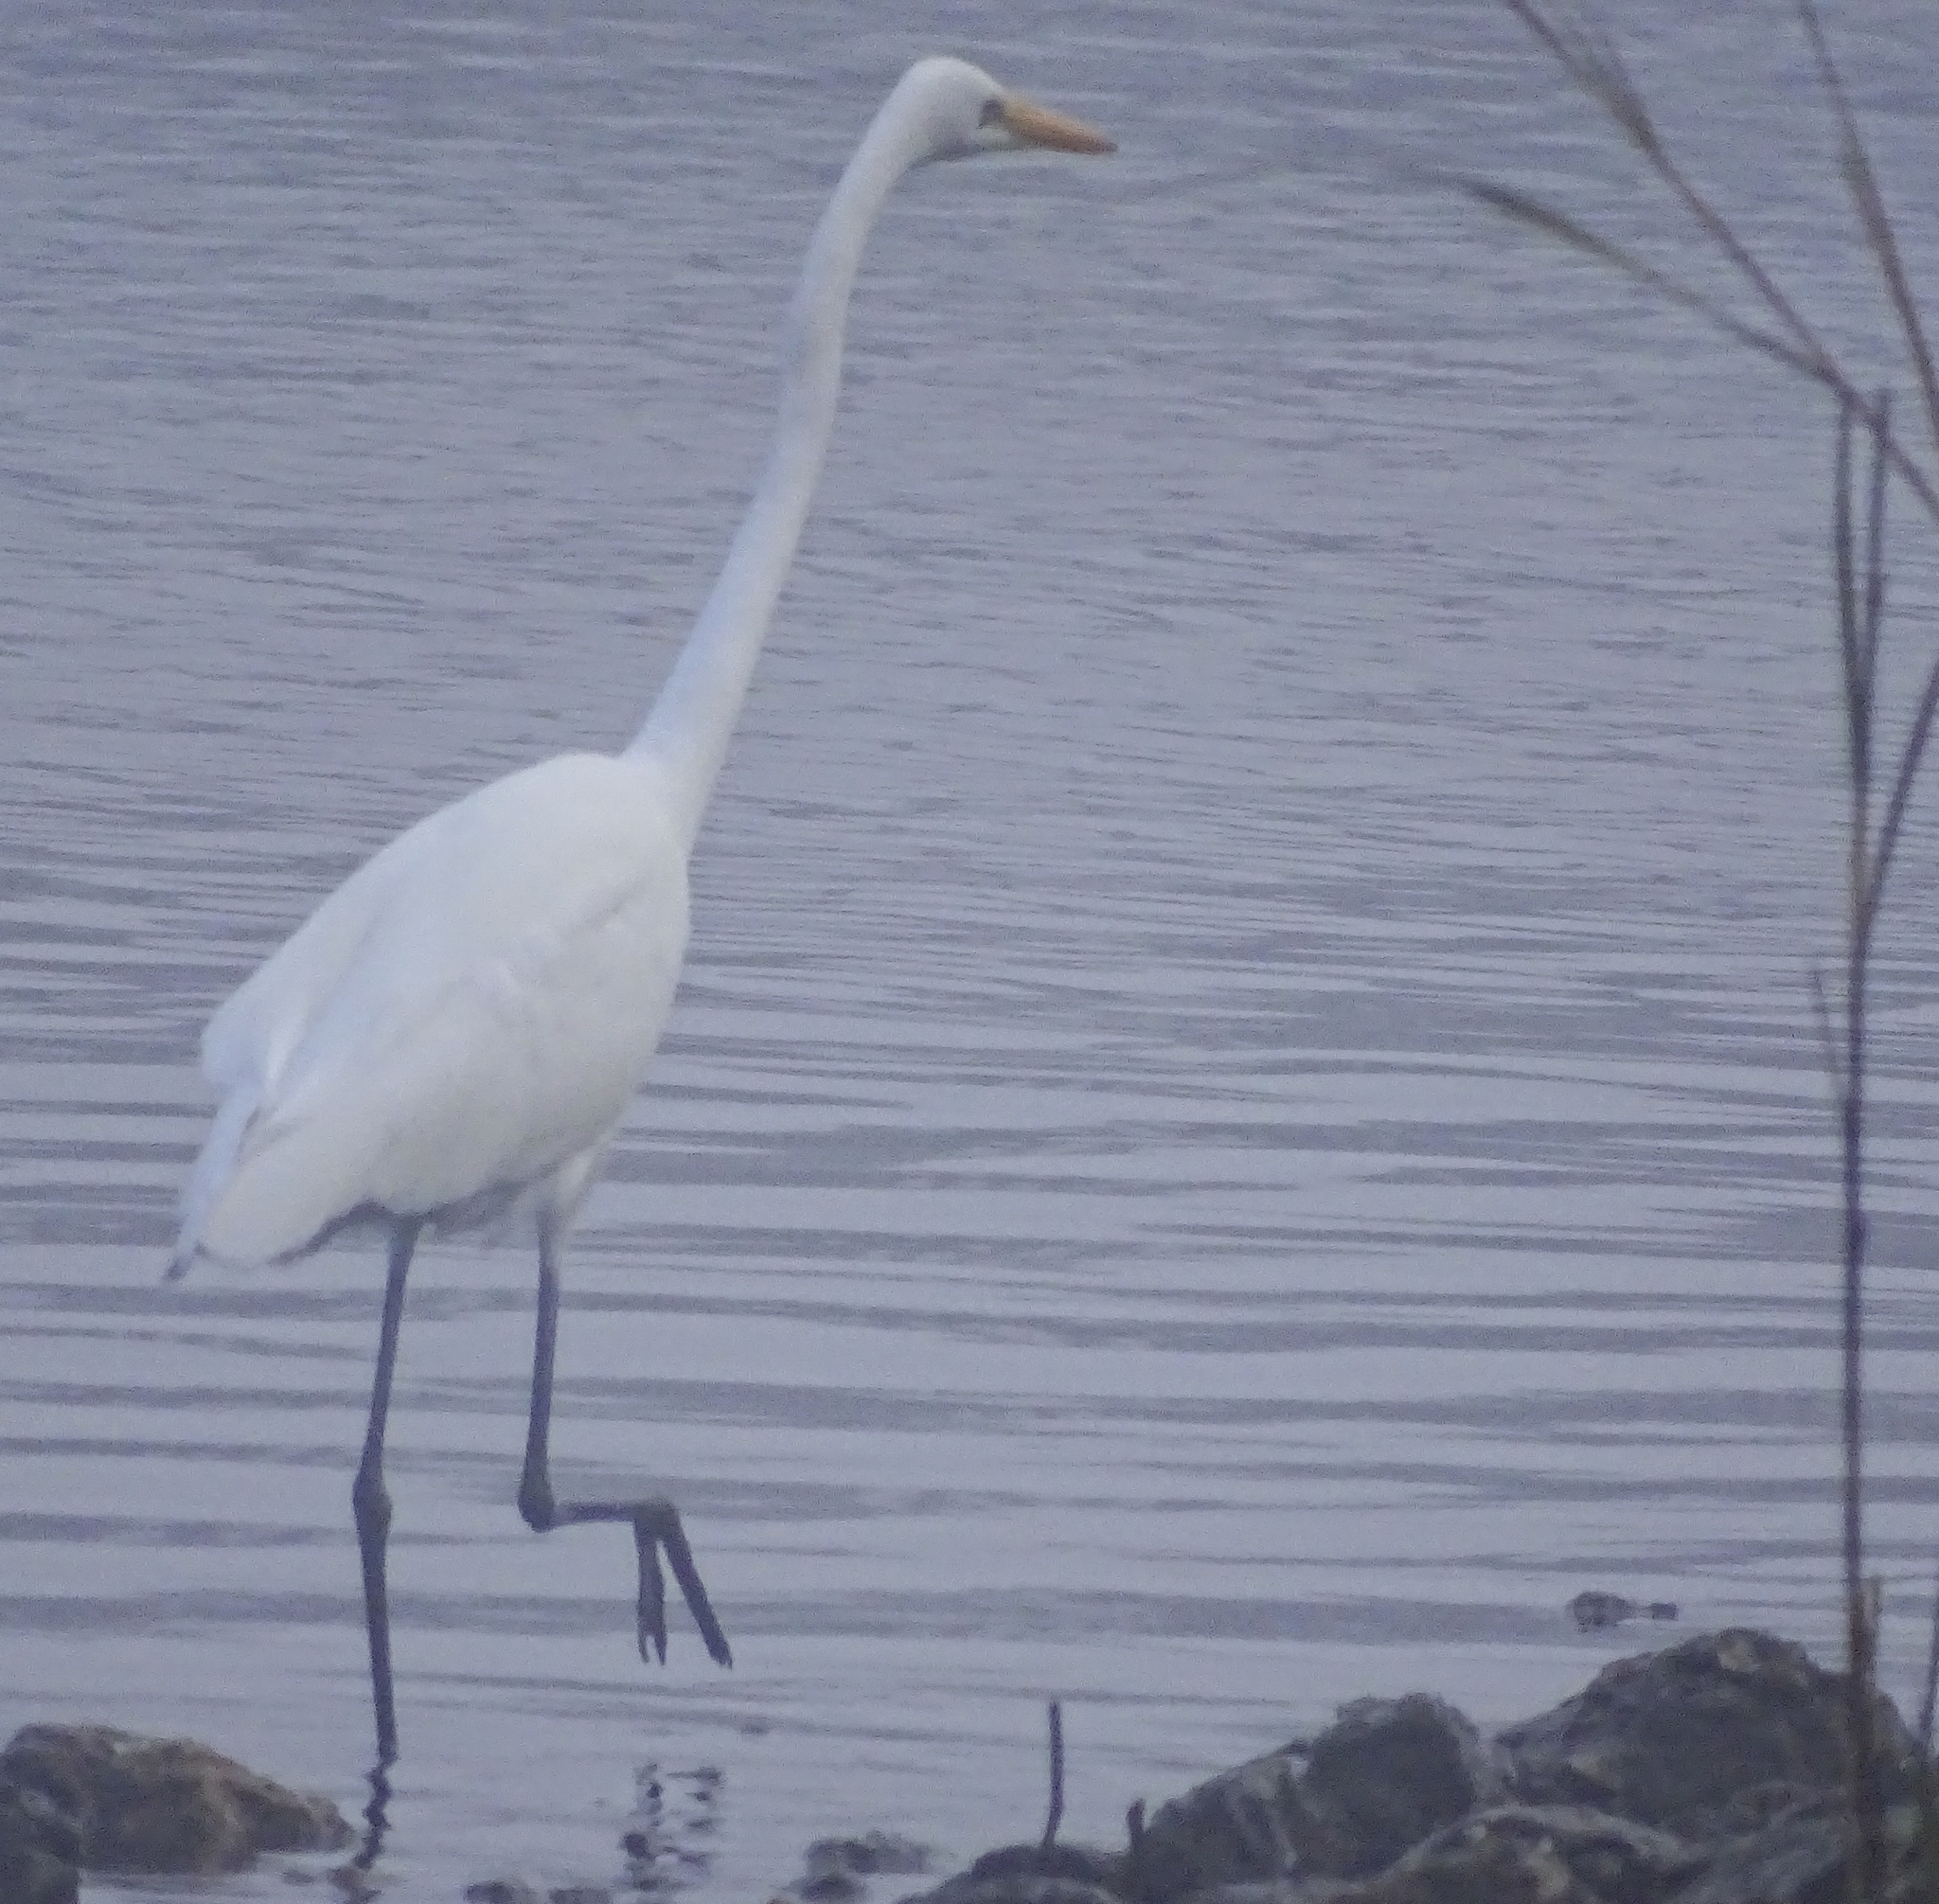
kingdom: Animalia
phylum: Chordata
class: Aves
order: Pelecaniformes
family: Ardeidae
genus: Ardea
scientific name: Ardea alba
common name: Great egret
